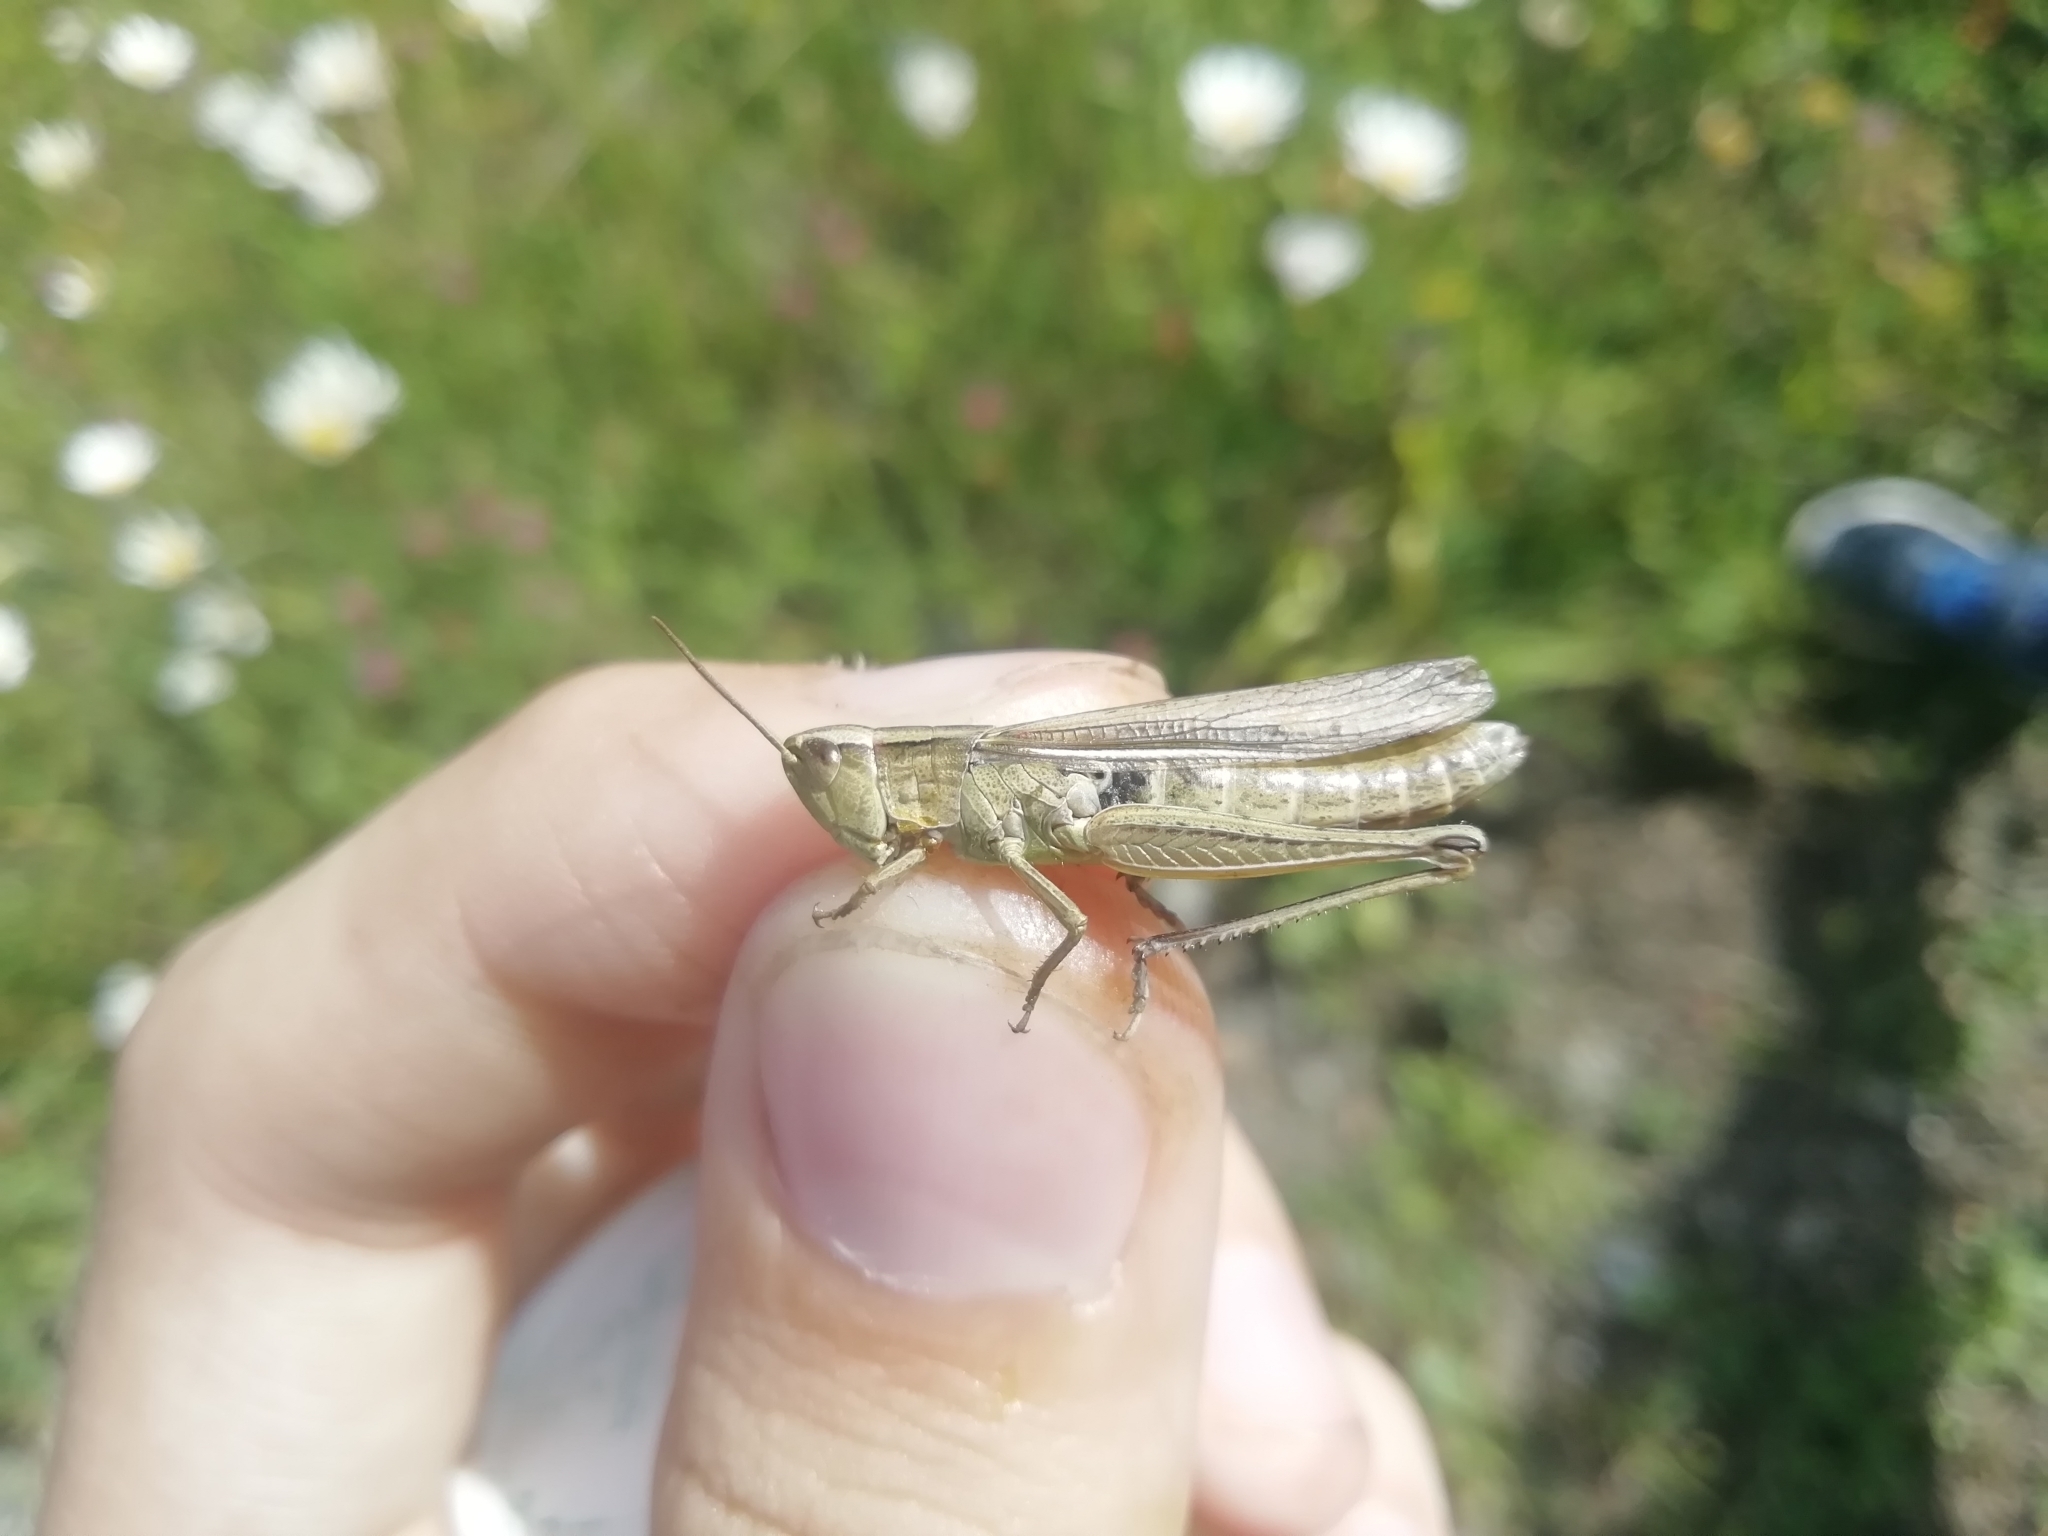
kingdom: Animalia
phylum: Arthropoda
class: Insecta
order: Orthoptera
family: Acrididae
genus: Chorthippus
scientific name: Chorthippus karelini
